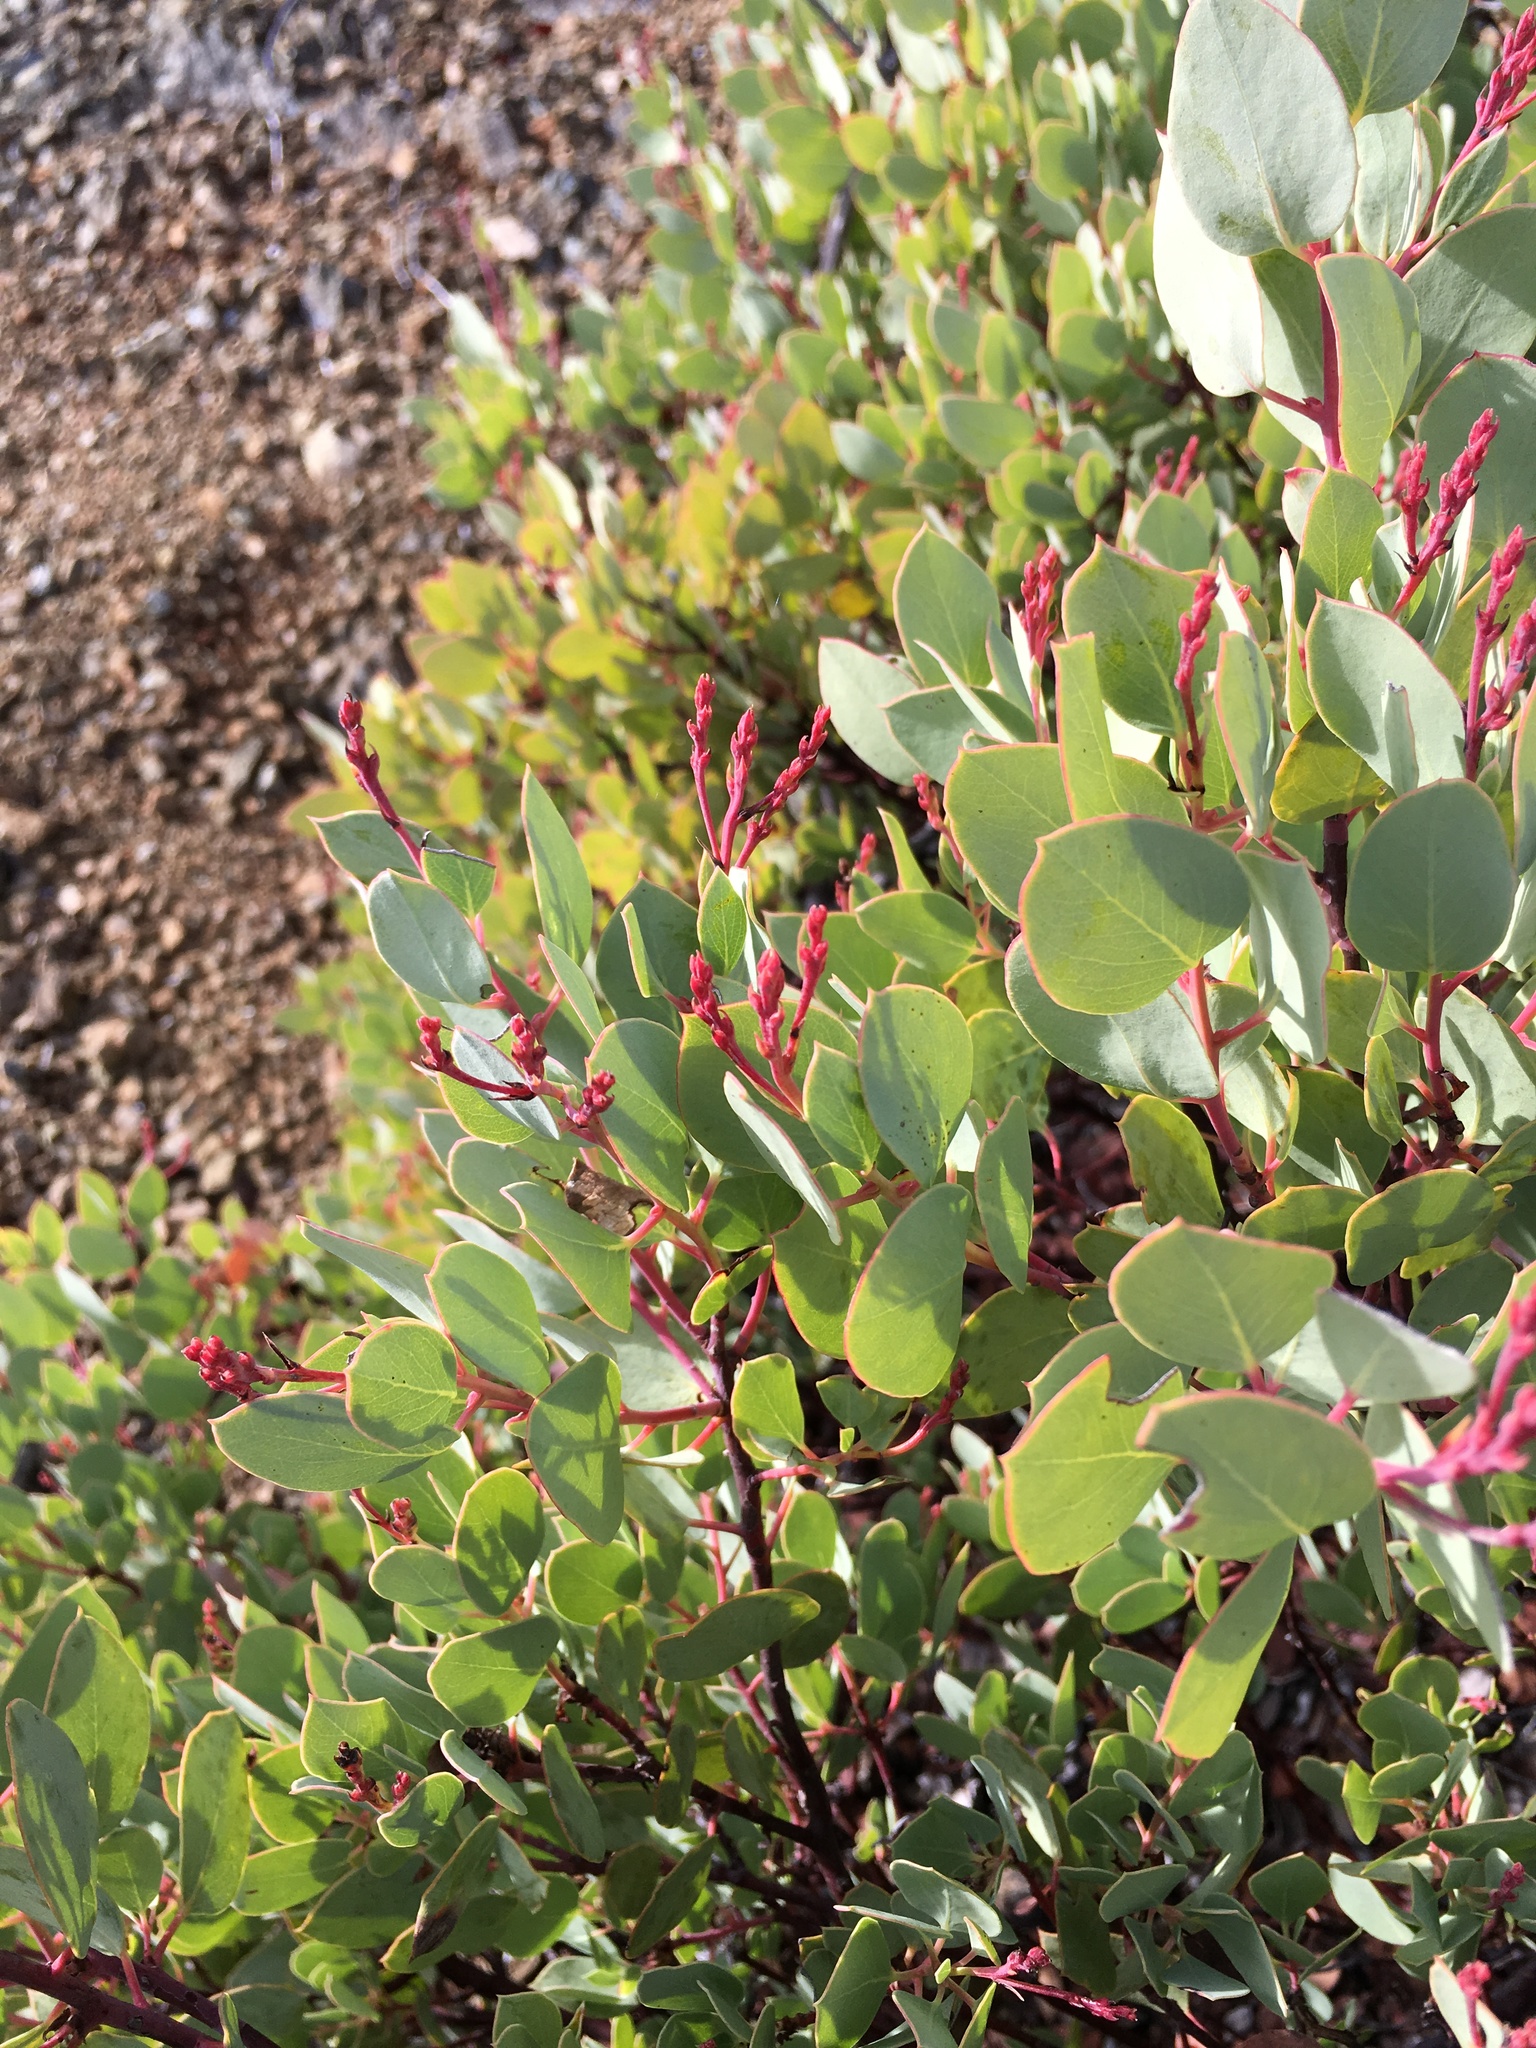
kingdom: Plantae
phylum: Tracheophyta
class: Magnoliopsida
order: Ericales
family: Ericaceae
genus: Arctostaphylos
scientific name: Arctostaphylos viscida
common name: White-leaf manzanita
